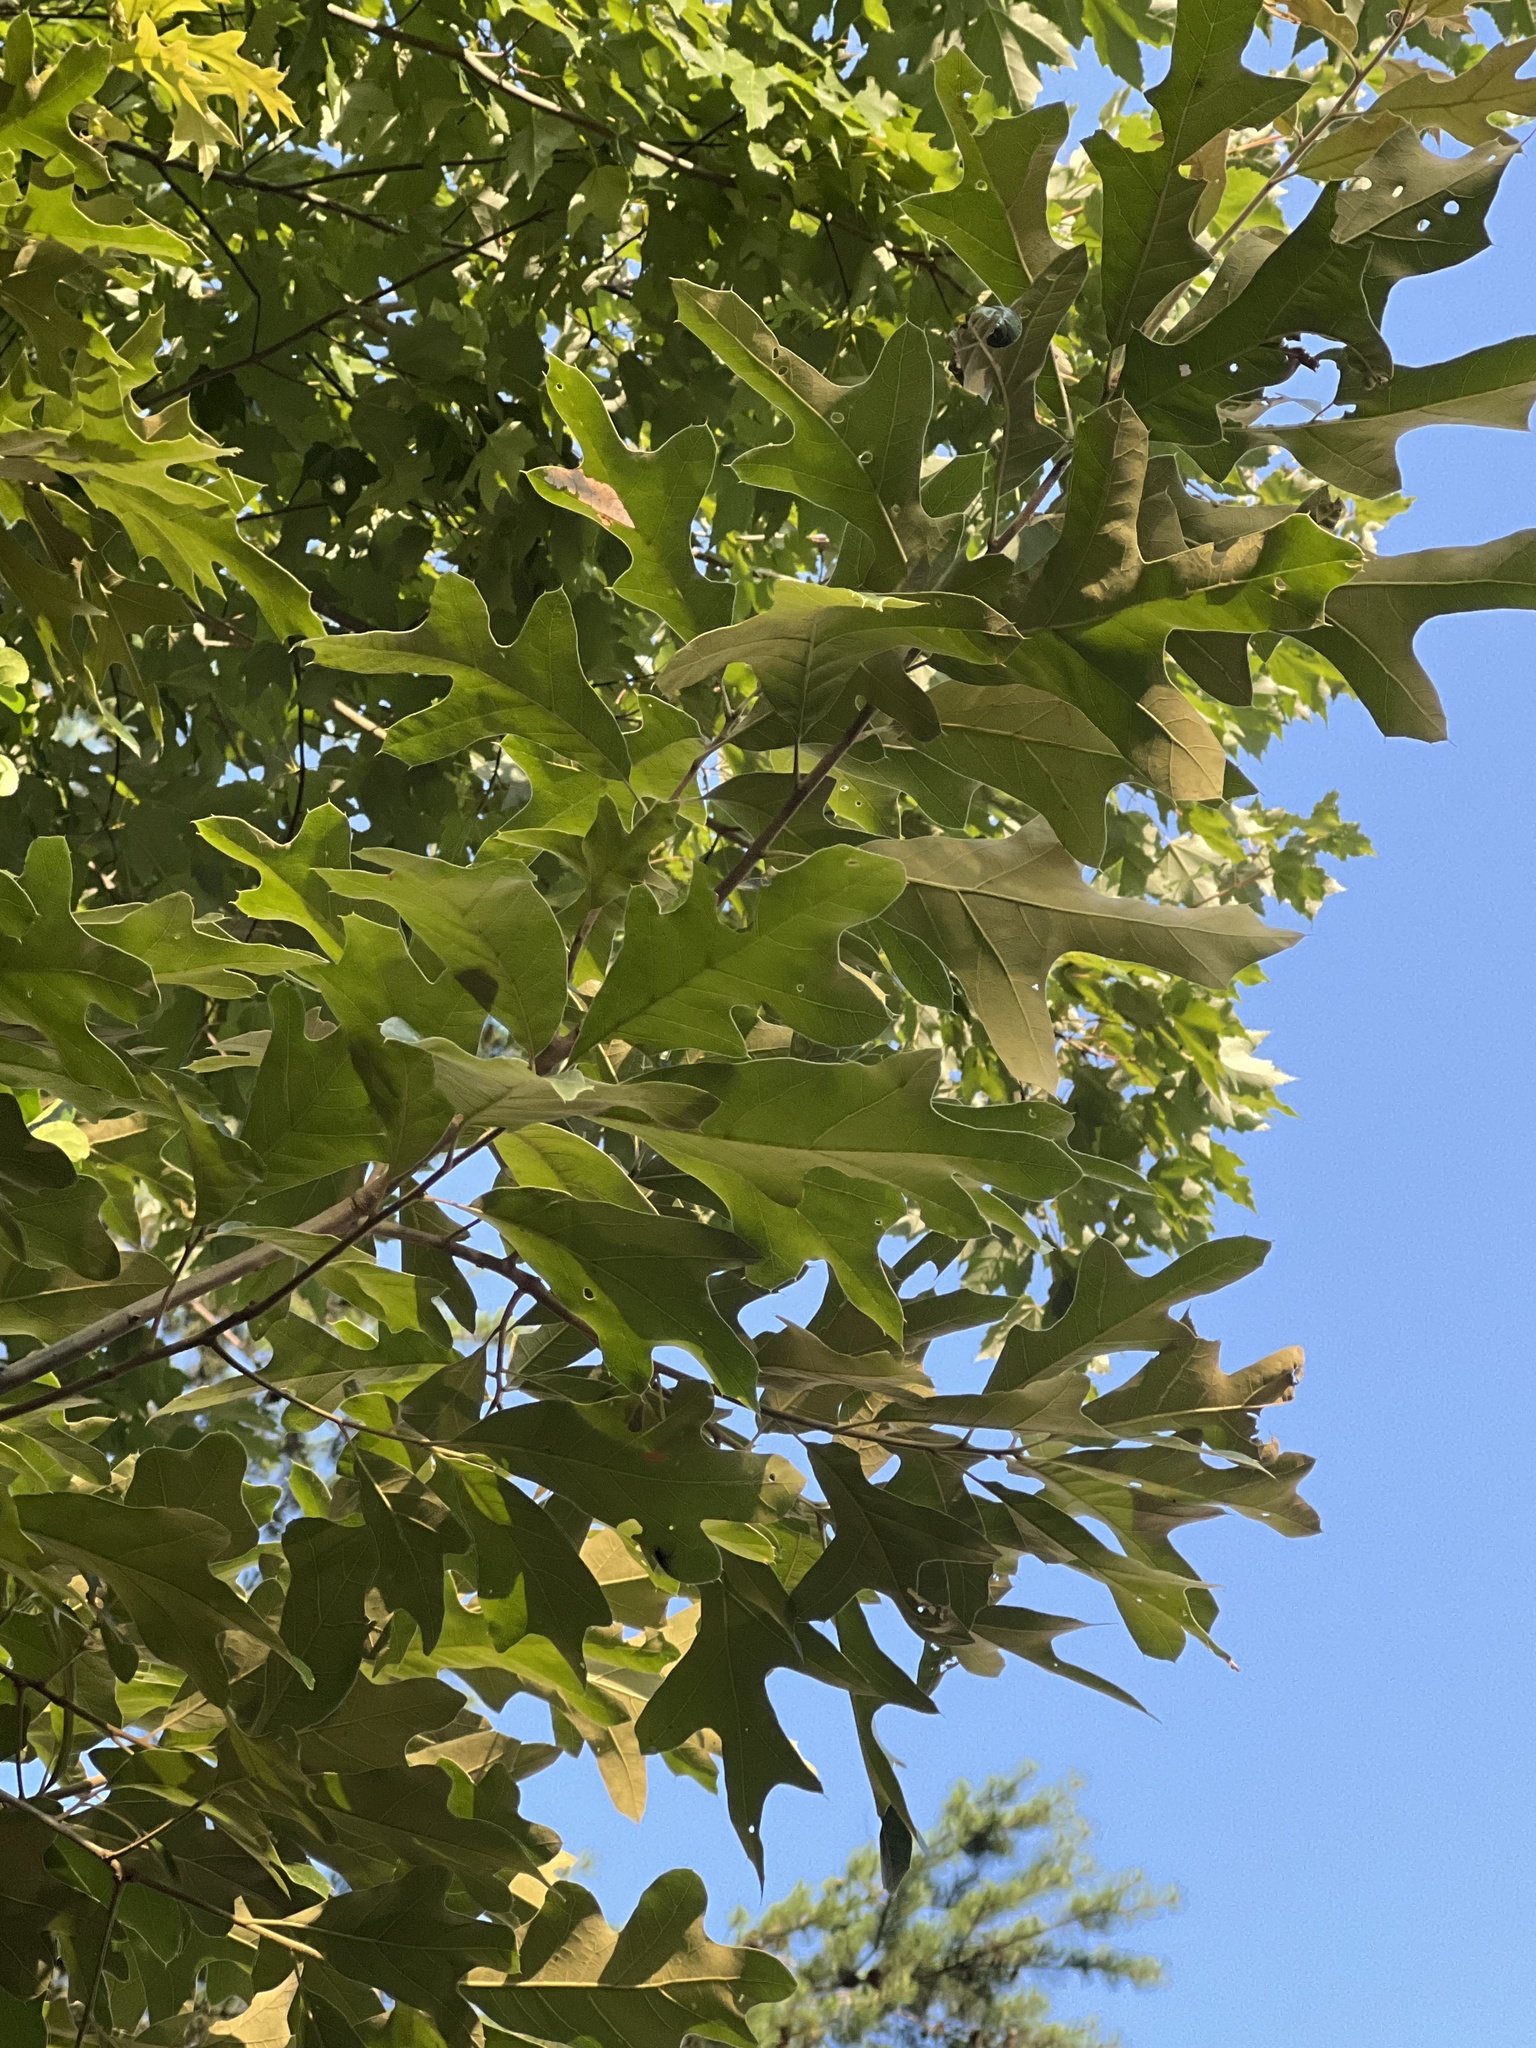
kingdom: Plantae
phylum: Tracheophyta
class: Magnoliopsida
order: Fagales
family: Fagaceae
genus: Quercus
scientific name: Quercus falcata
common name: Southern red oak
